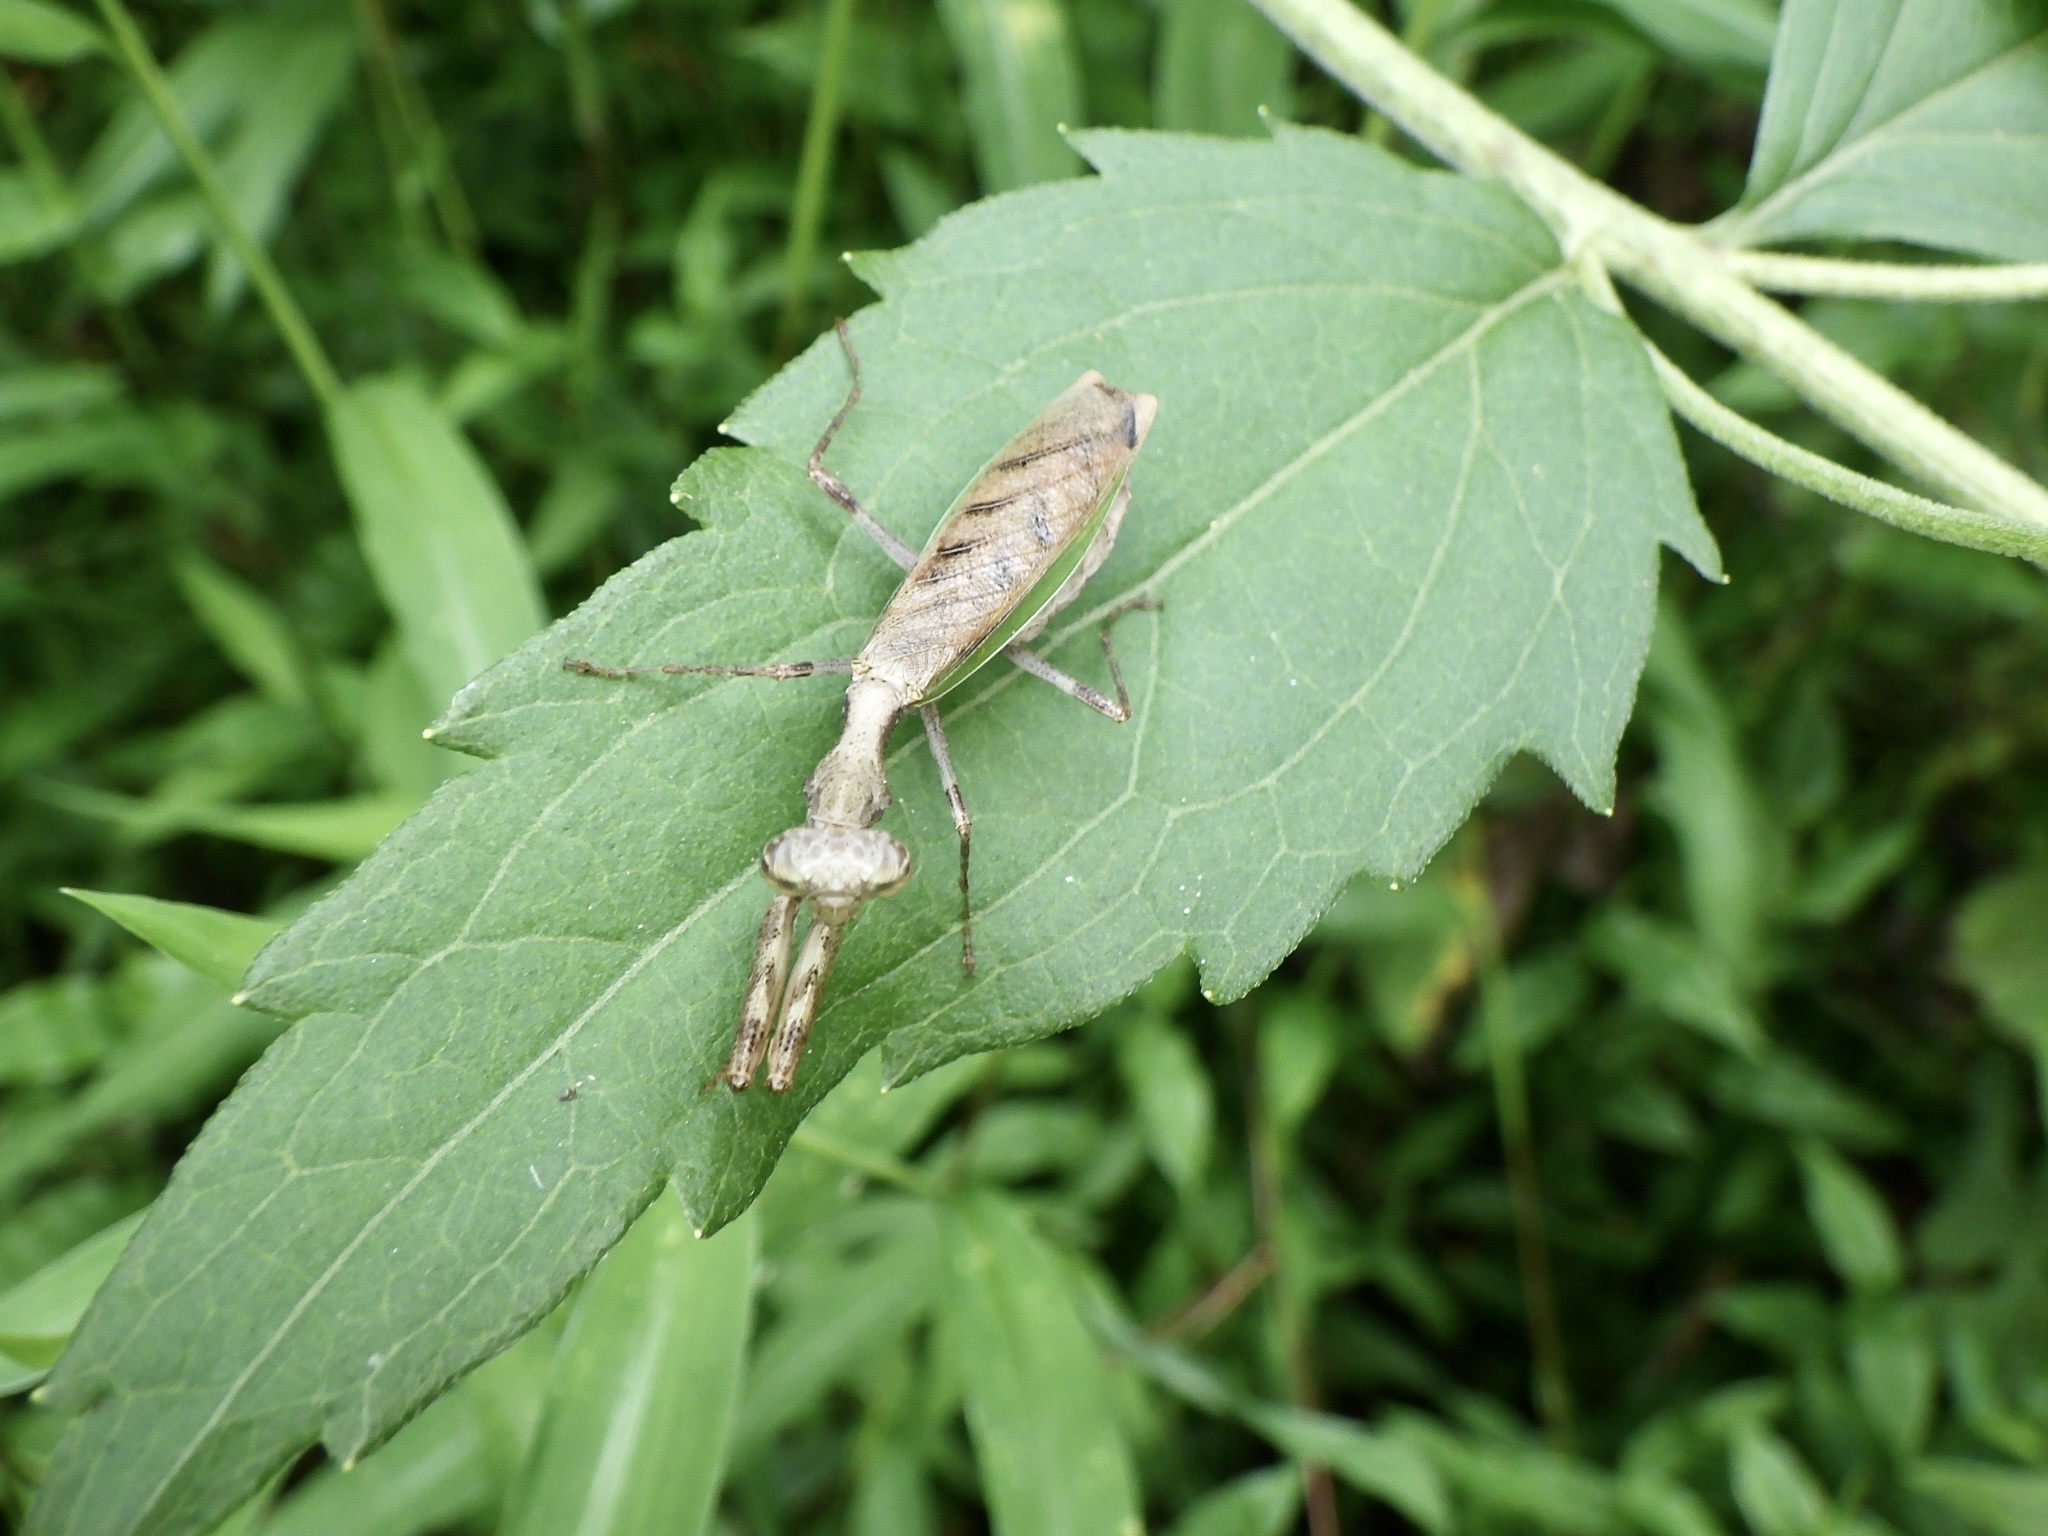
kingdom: Animalia
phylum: Arthropoda
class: Insecta
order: Mantodea
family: Hymenopodidae
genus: Acromantis
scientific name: Acromantis japonica
